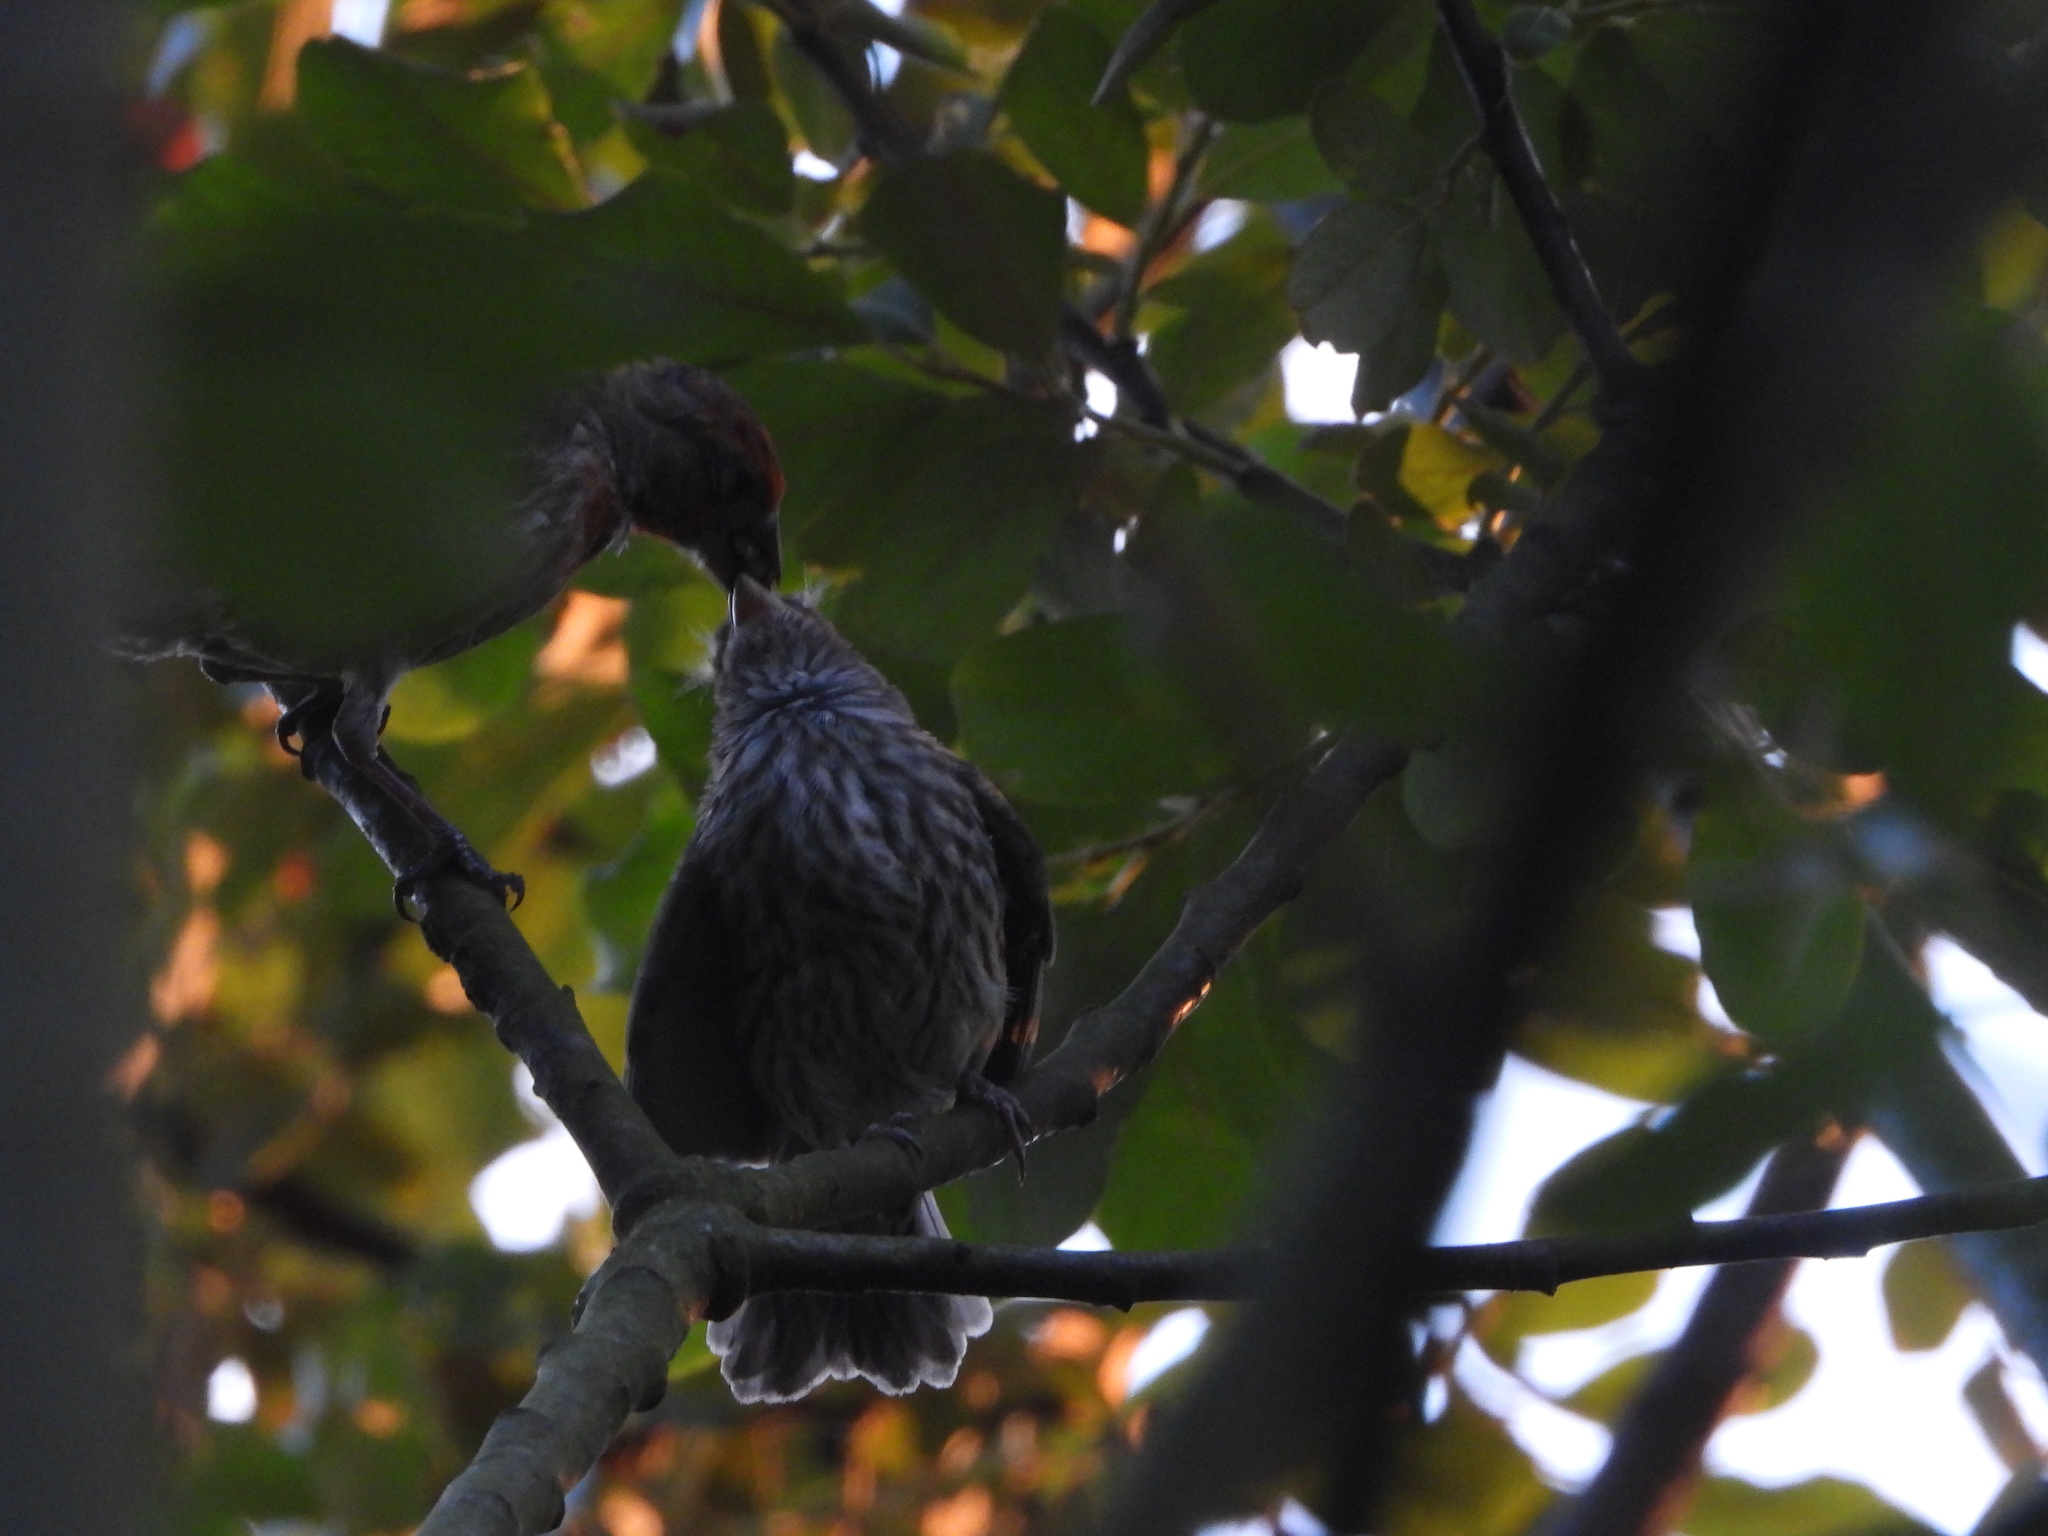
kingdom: Animalia
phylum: Chordata
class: Aves
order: Passeriformes
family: Fringillidae
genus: Haemorhous
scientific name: Haemorhous mexicanus
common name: House finch
